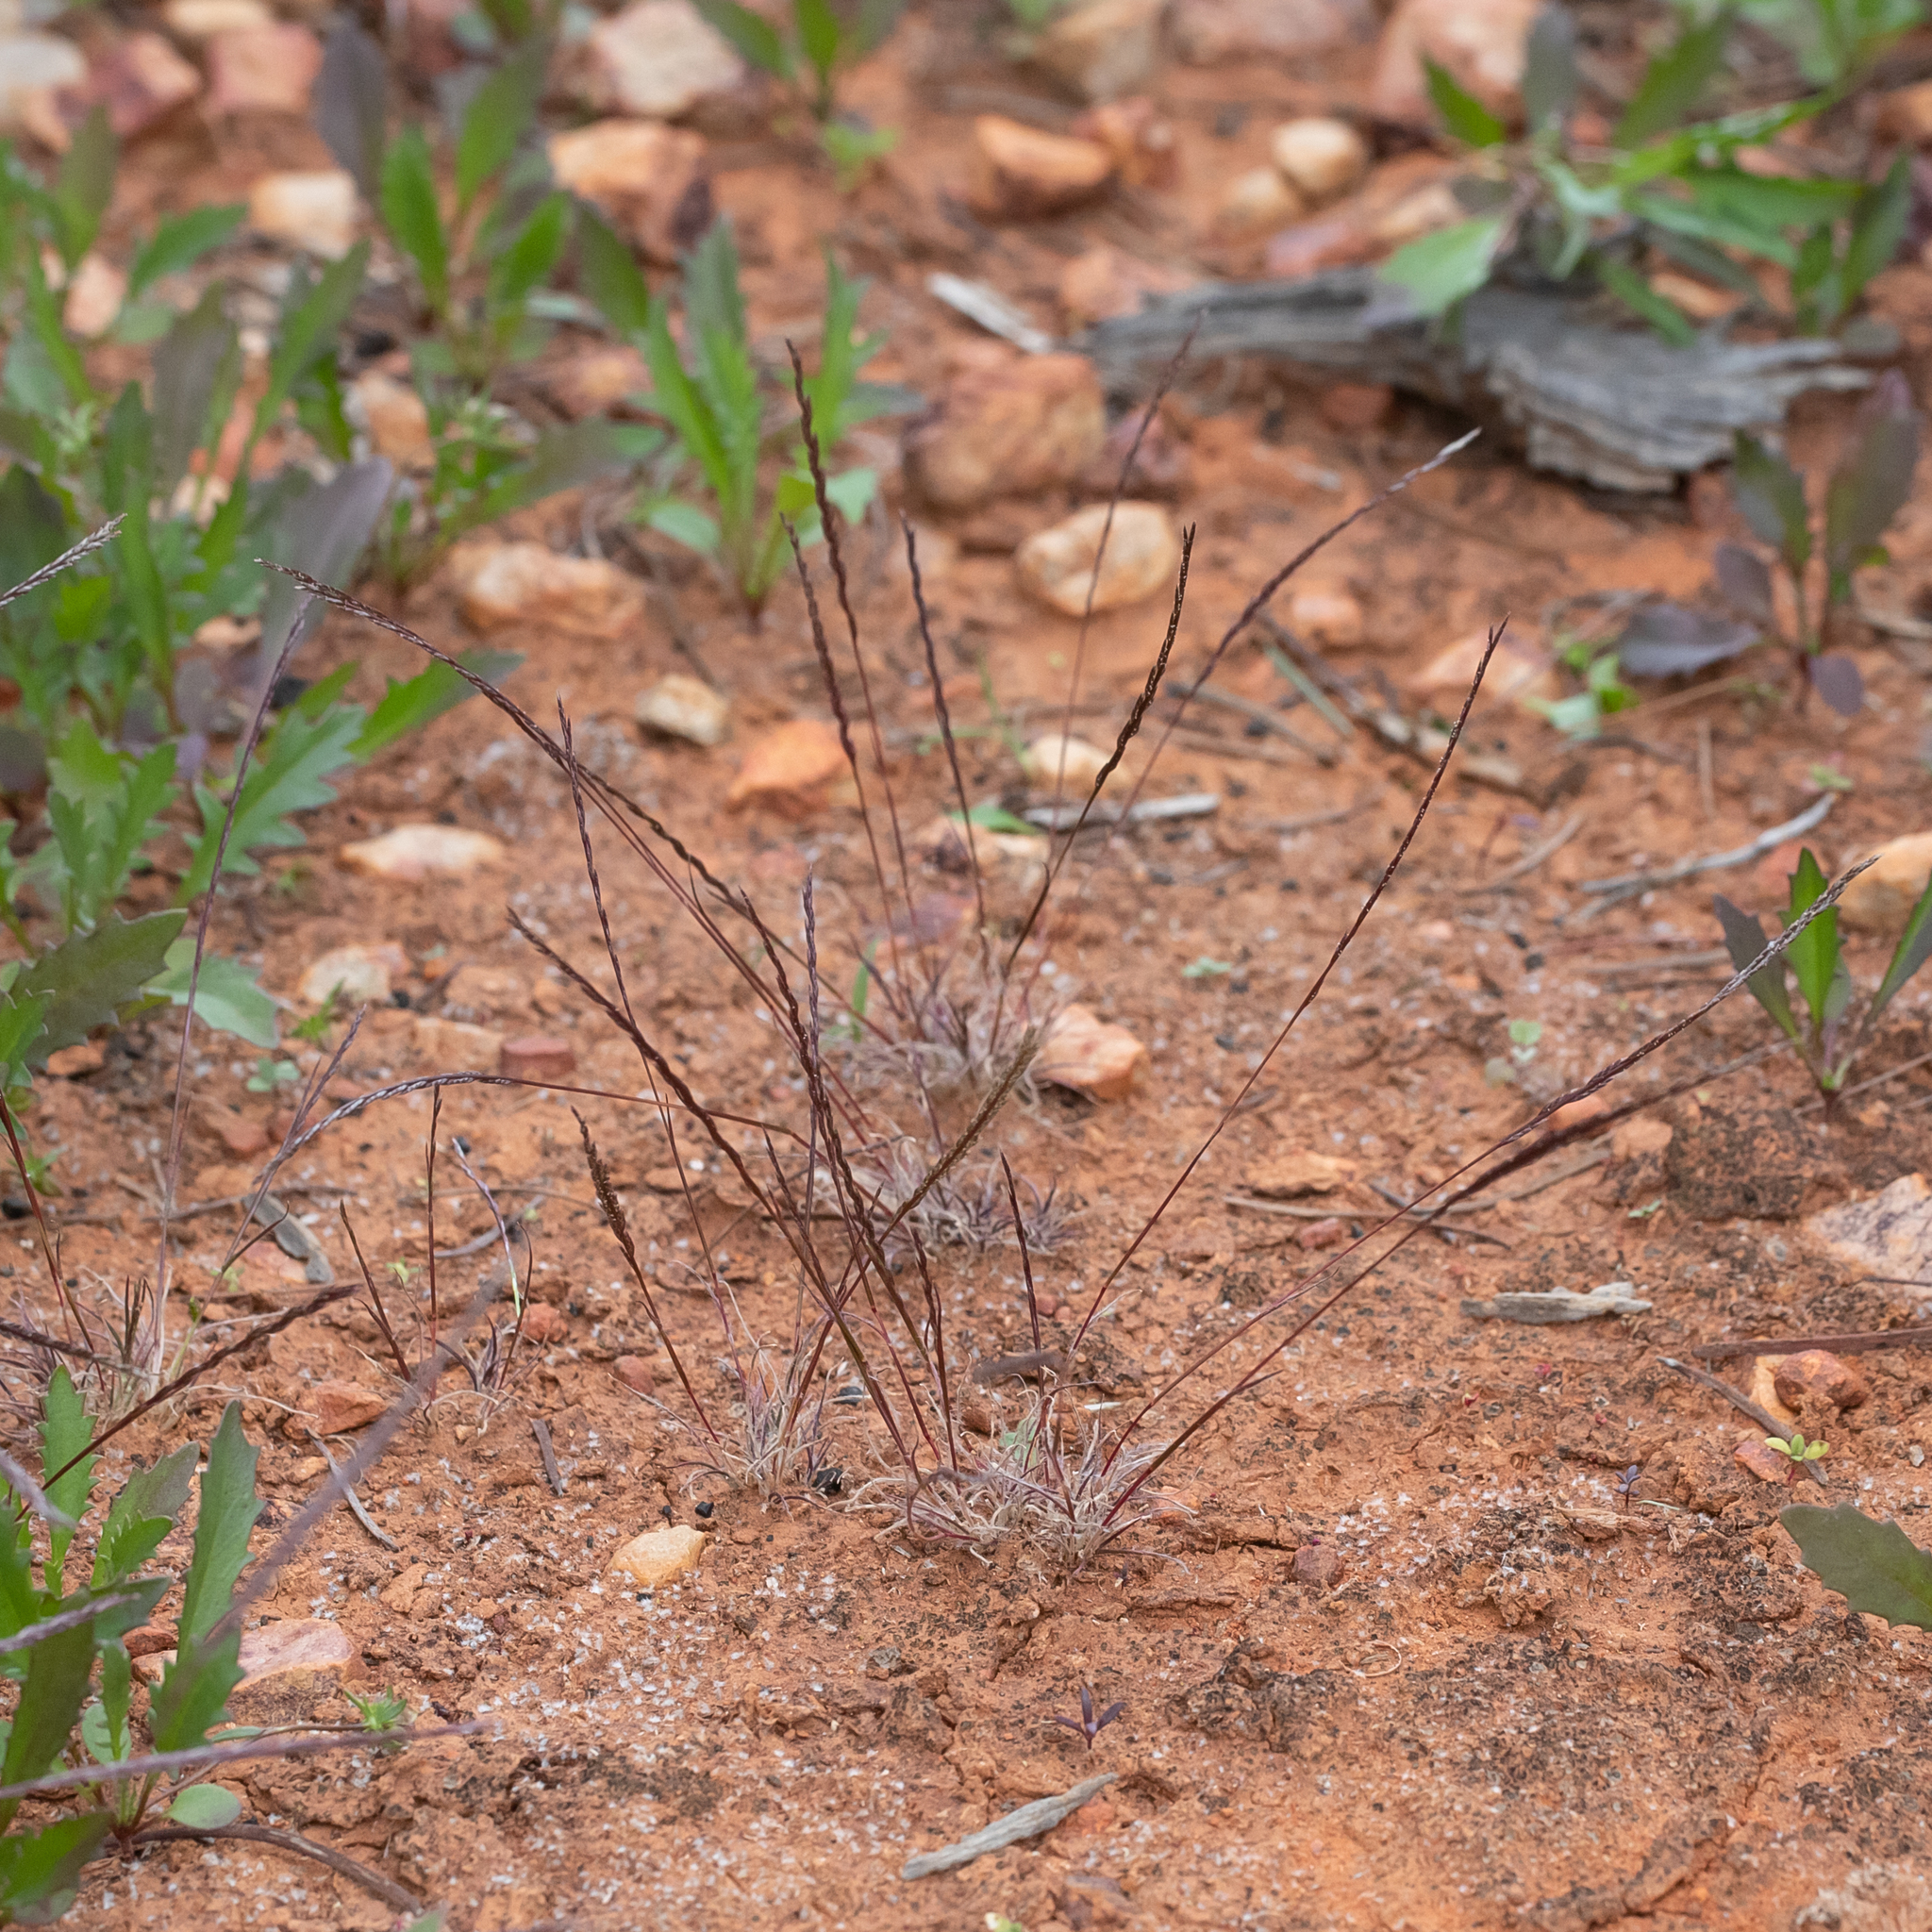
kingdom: Plantae
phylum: Tracheophyta
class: Liliopsida
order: Poales
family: Poaceae
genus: Tripogonella
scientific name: Tripogonella loliiformis
